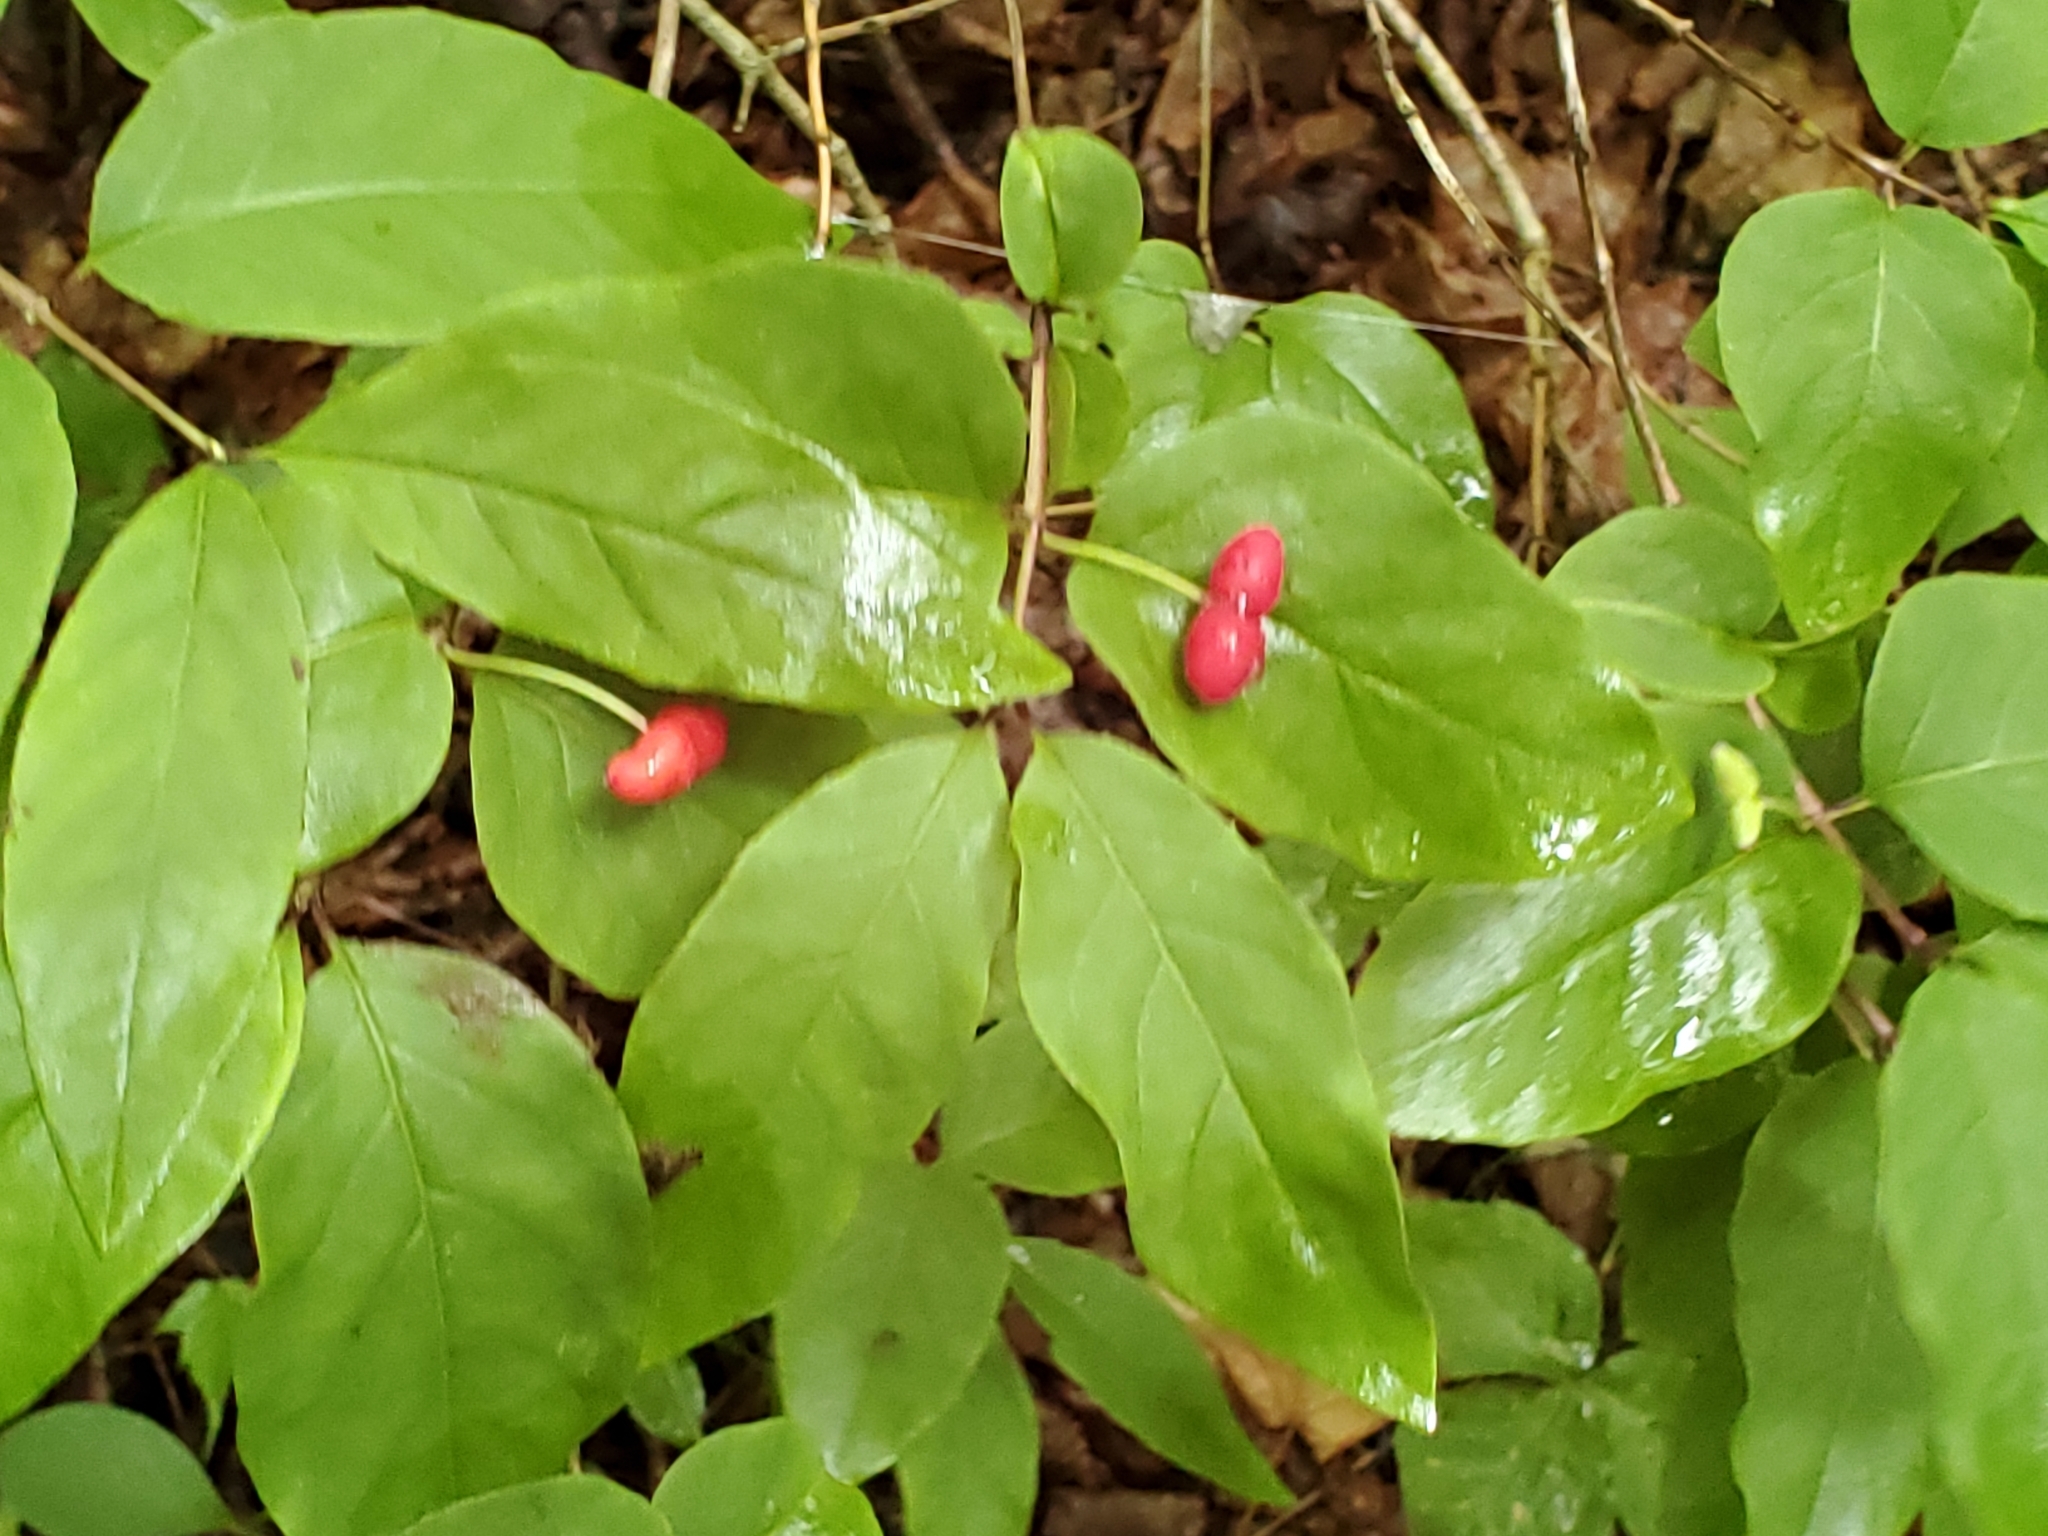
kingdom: Plantae
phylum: Tracheophyta
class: Magnoliopsida
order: Dipsacales
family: Caprifoliaceae
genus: Lonicera
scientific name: Lonicera canadensis
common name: American fly-honeysuckle
